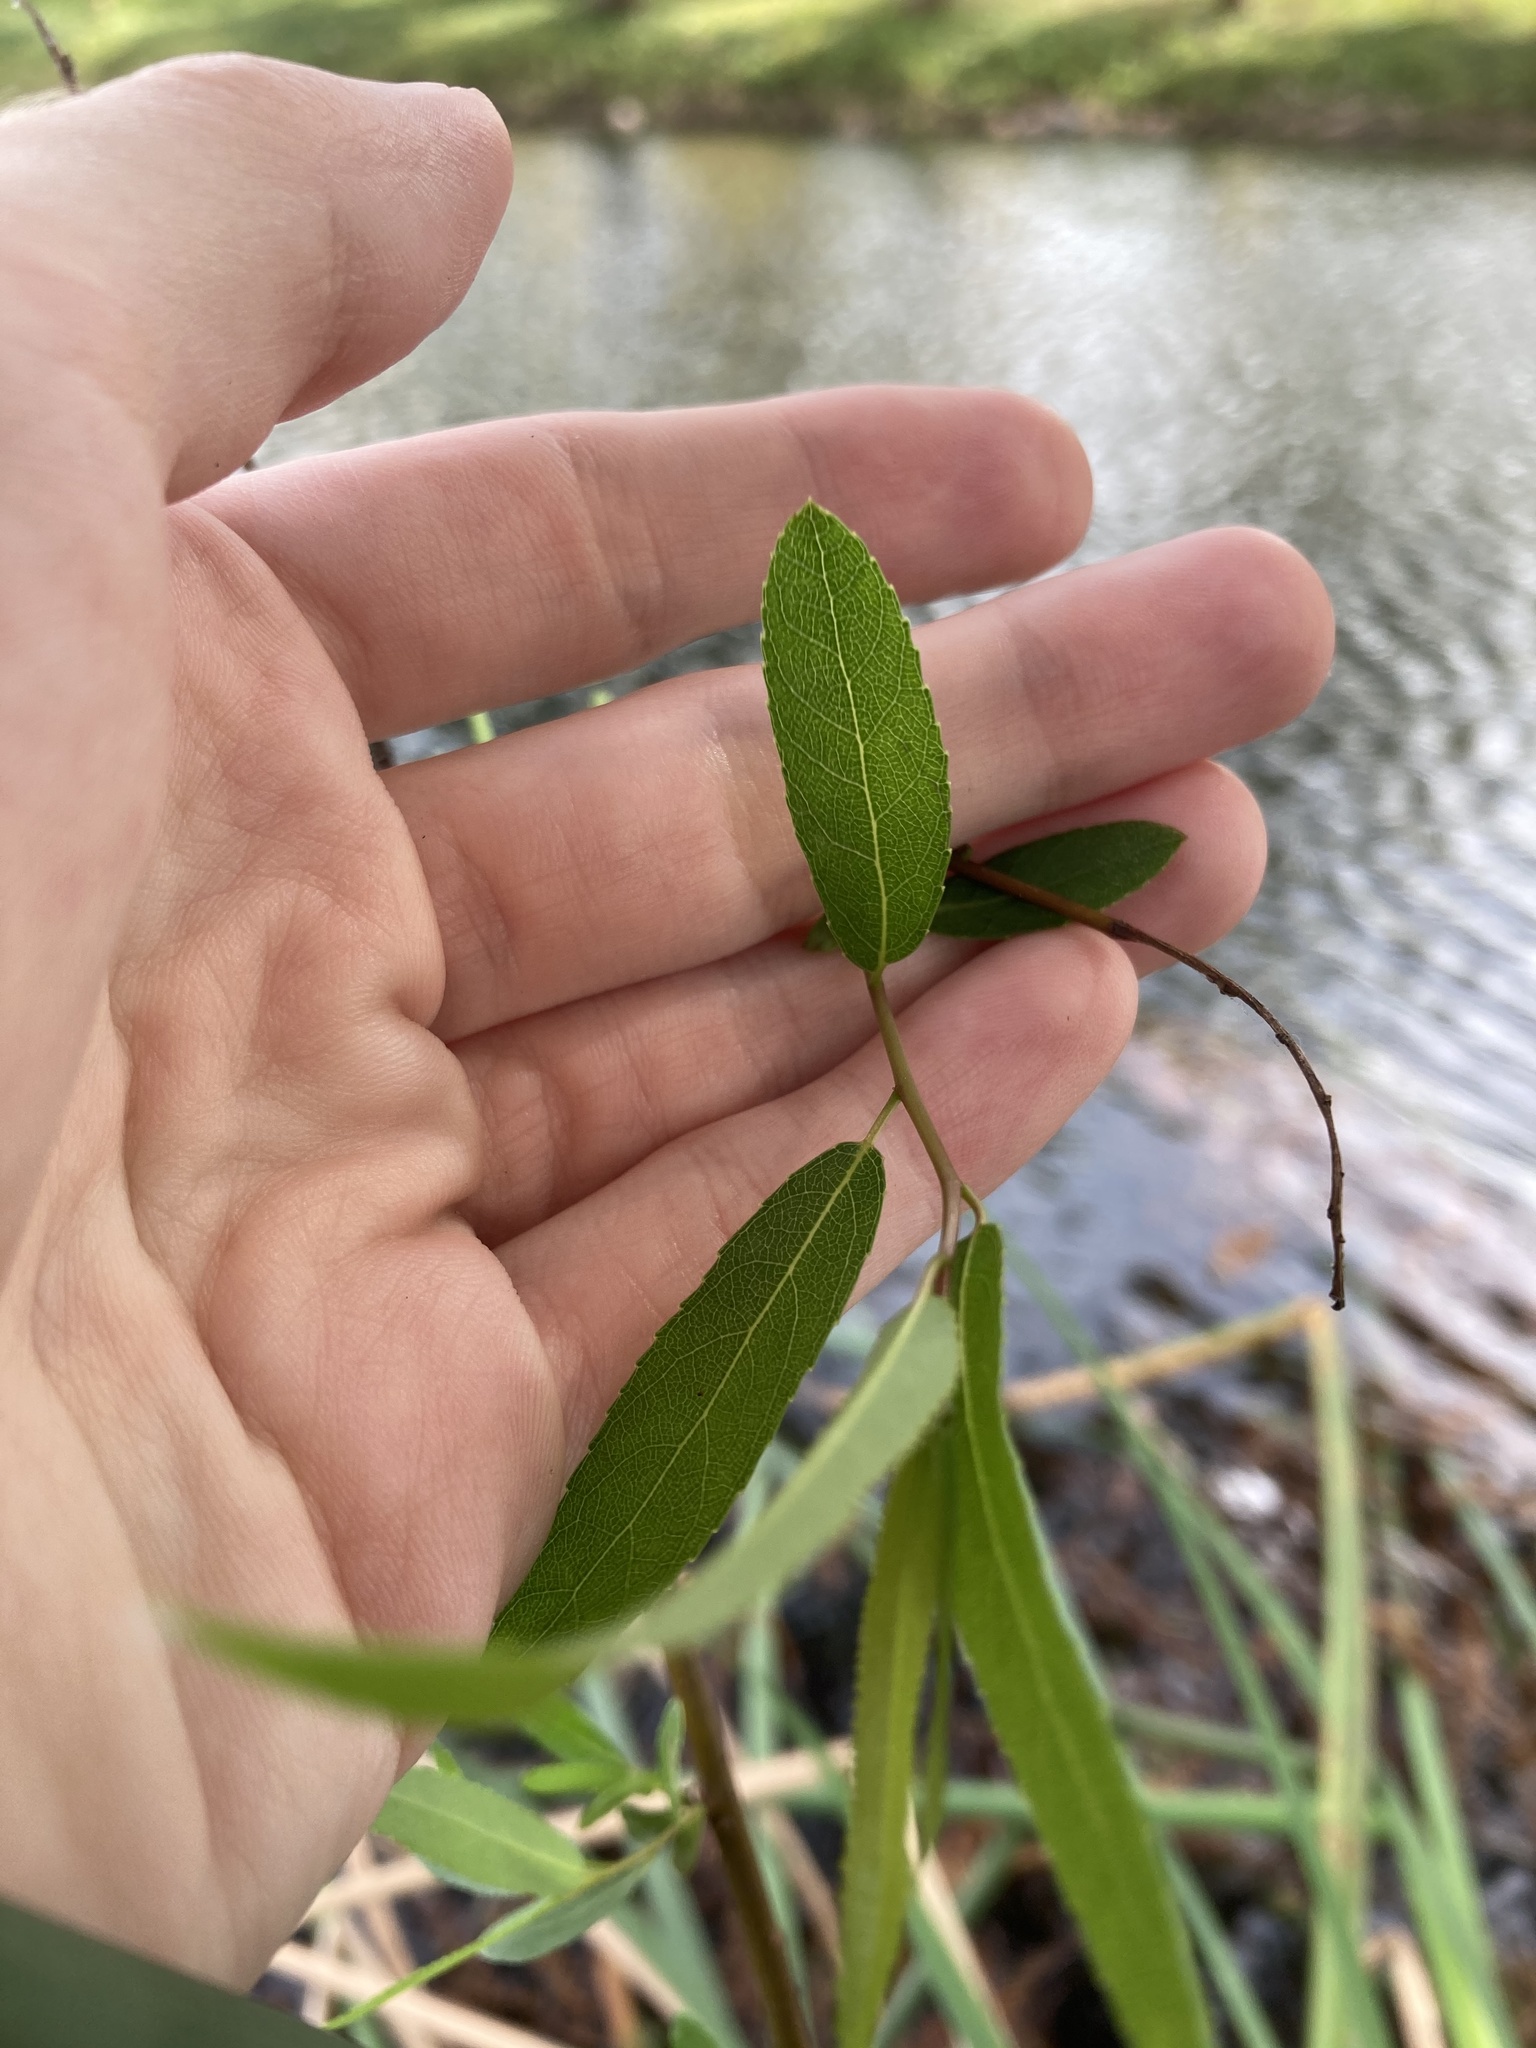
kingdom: Plantae
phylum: Tracheophyta
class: Magnoliopsida
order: Malpighiales
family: Salicaceae
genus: Salix
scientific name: Salix caroliniana
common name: Carolina willow
